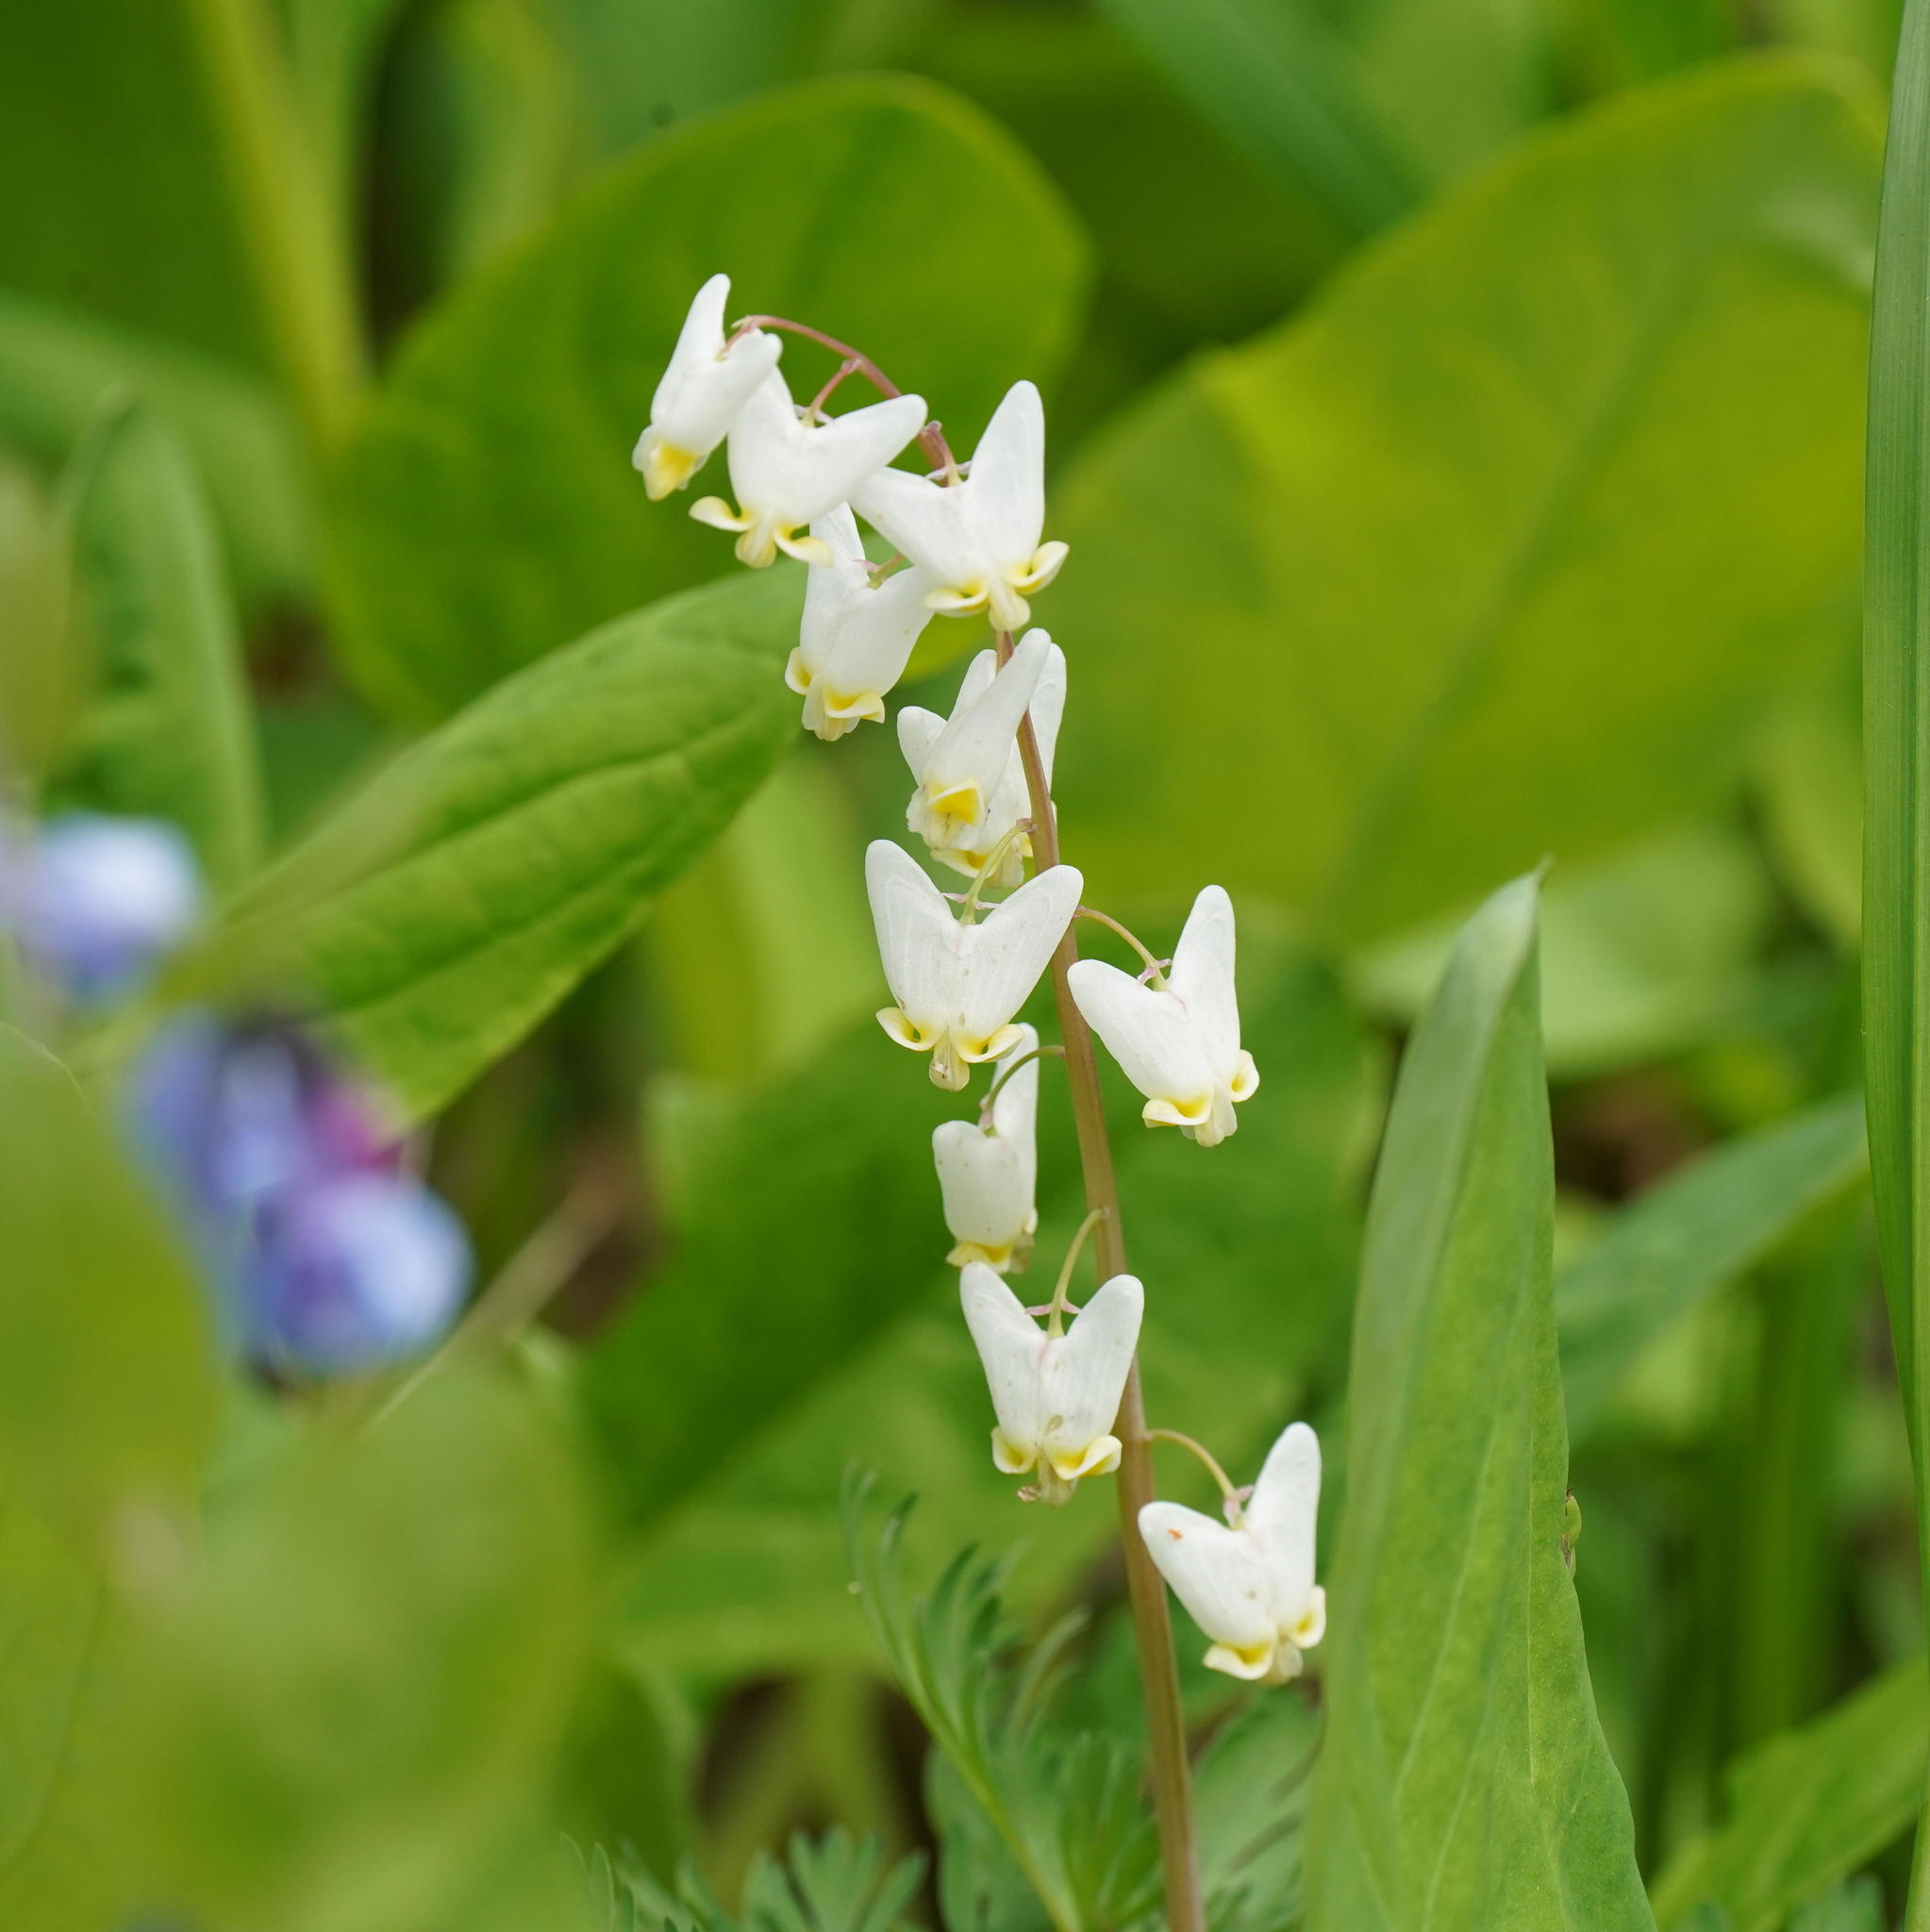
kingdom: Plantae
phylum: Tracheophyta
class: Magnoliopsida
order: Ranunculales
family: Papaveraceae
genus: Dicentra
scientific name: Dicentra cucullaria
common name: Dutchman's breeches
